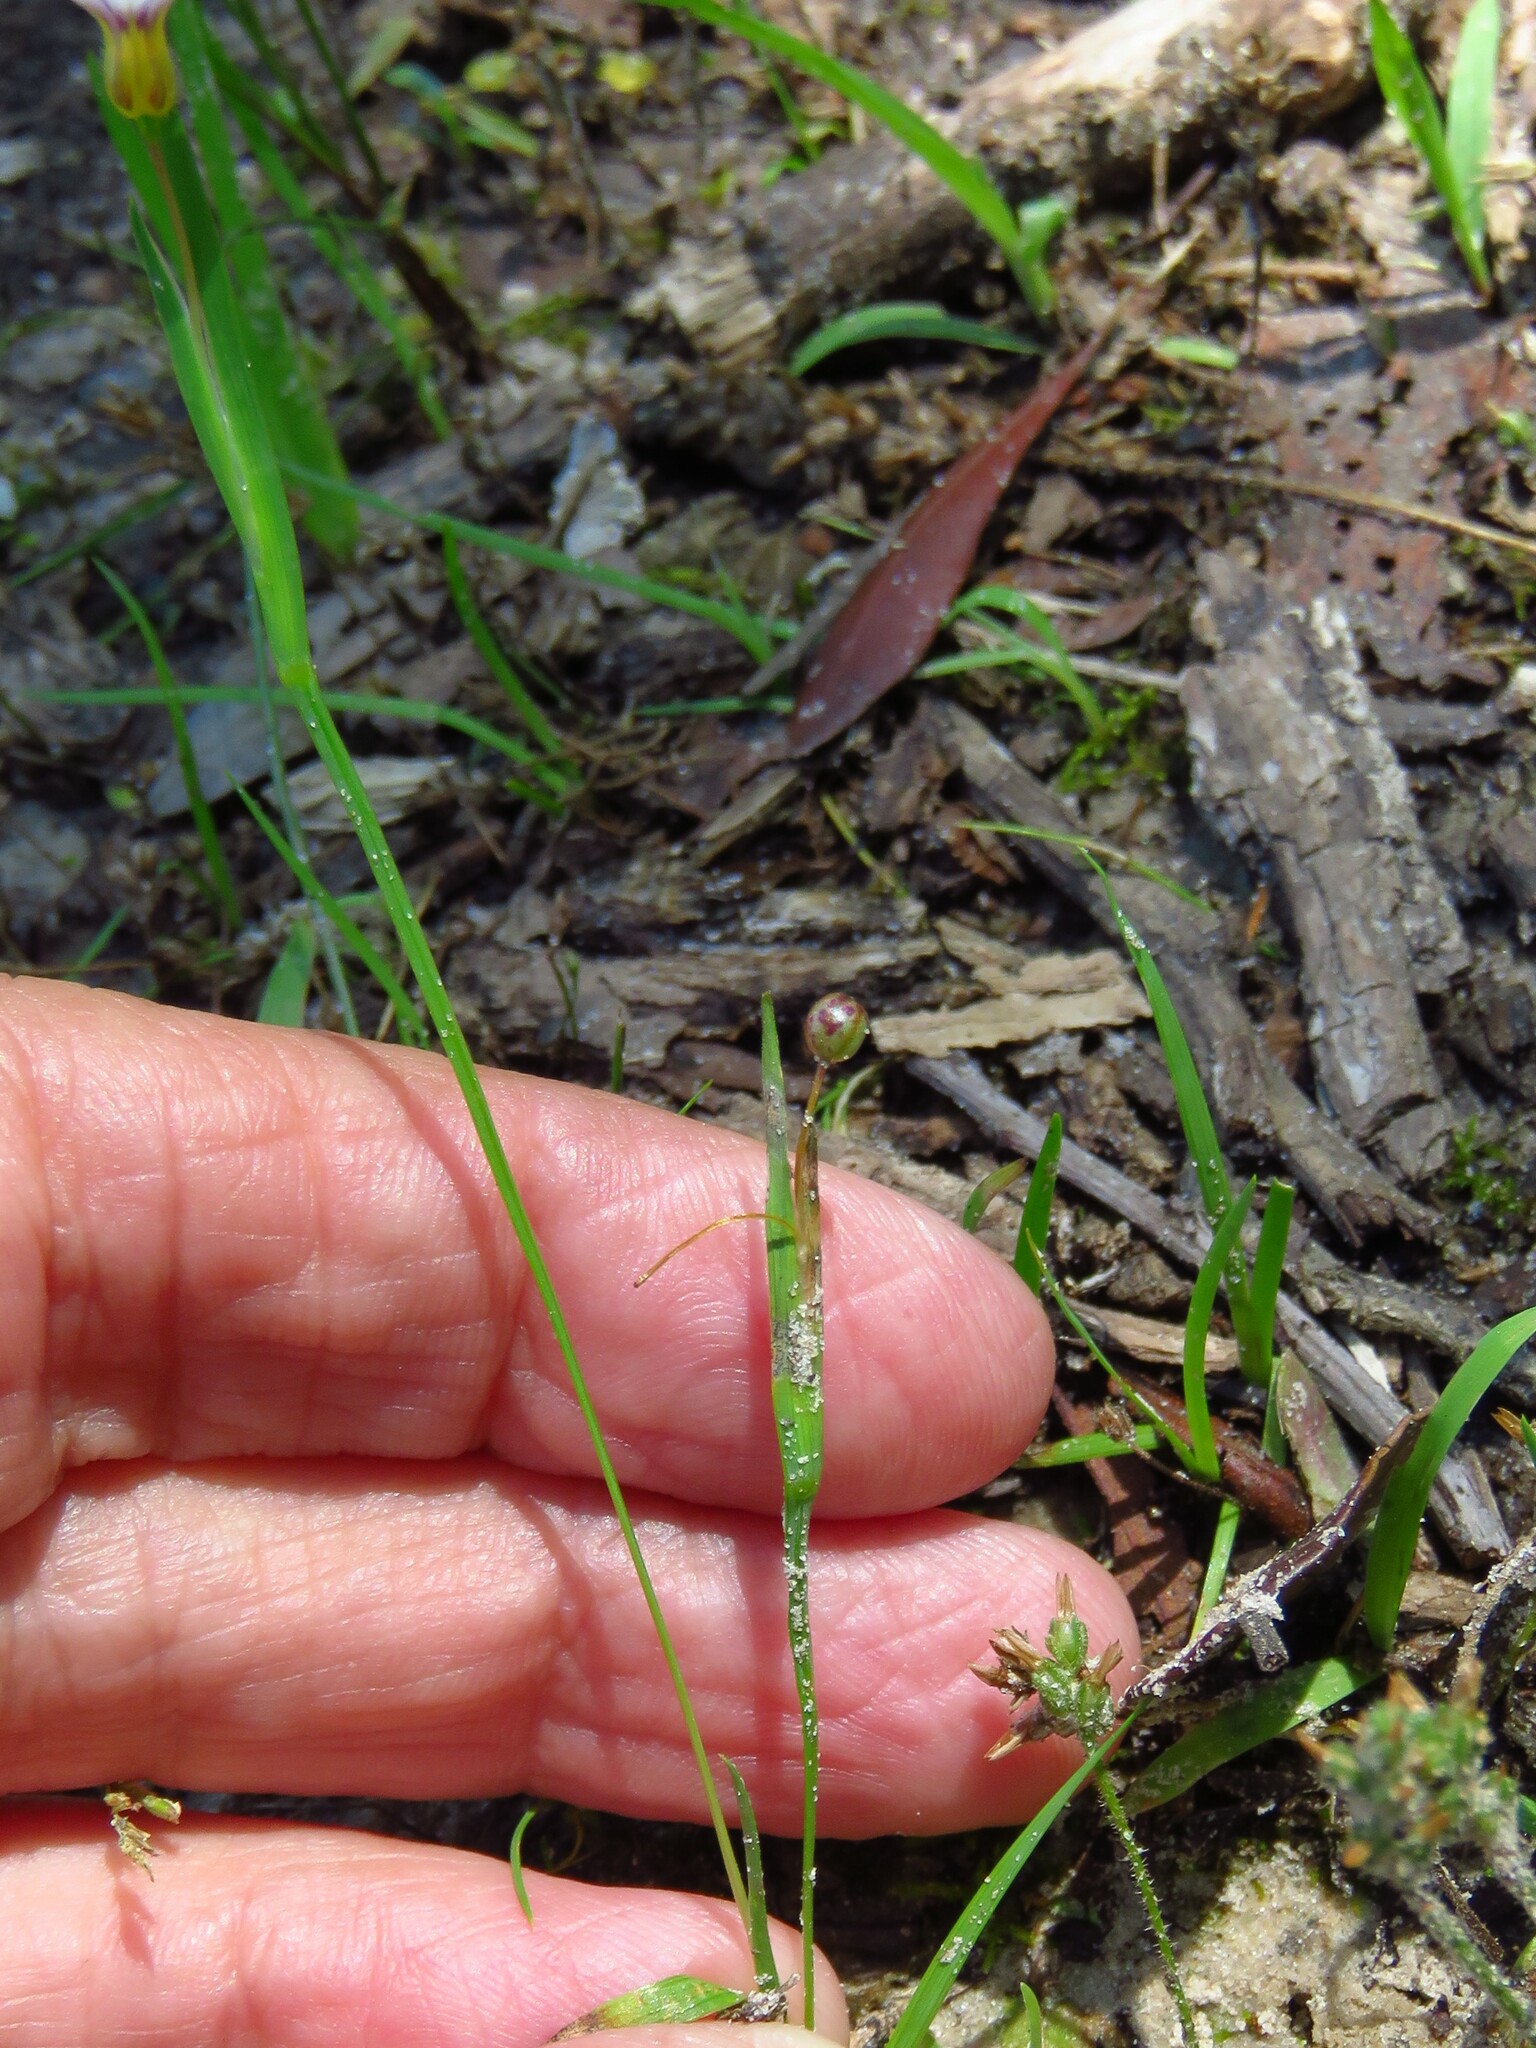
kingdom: Plantae
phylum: Tracheophyta
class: Liliopsida
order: Asparagales
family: Iridaceae
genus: Sisyrinchium
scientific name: Sisyrinchium micranthum
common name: Bermuda pigroot
